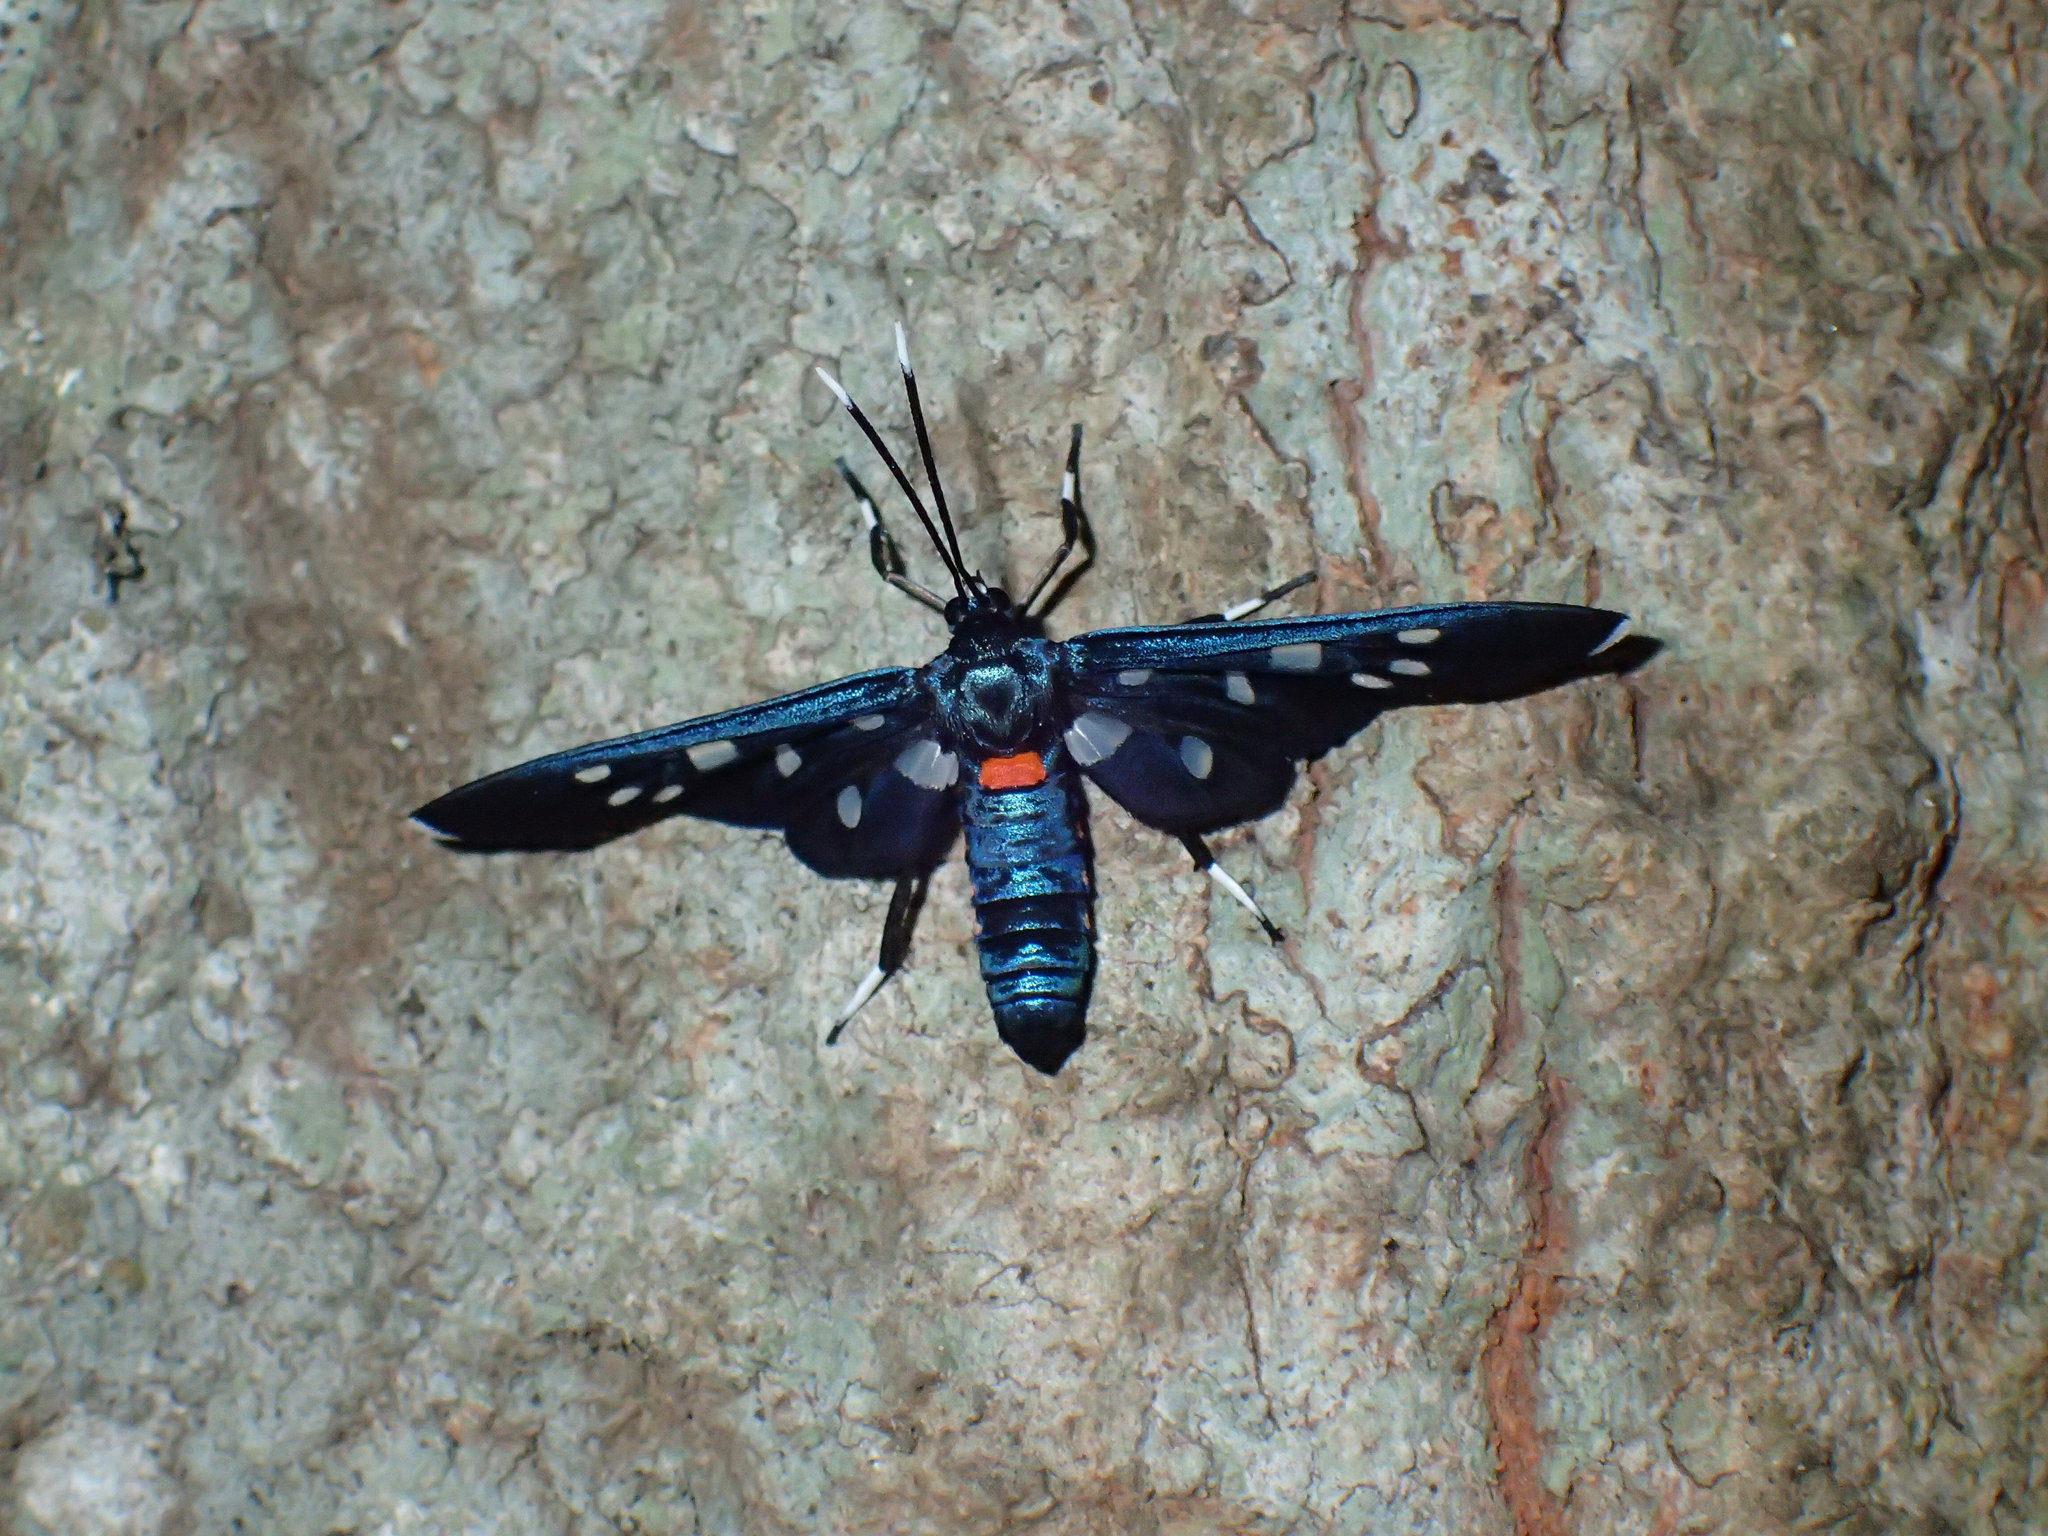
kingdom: Animalia
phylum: Arthropoda
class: Insecta
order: Lepidoptera
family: Erebidae
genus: Amata
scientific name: Amata kuhlweini
